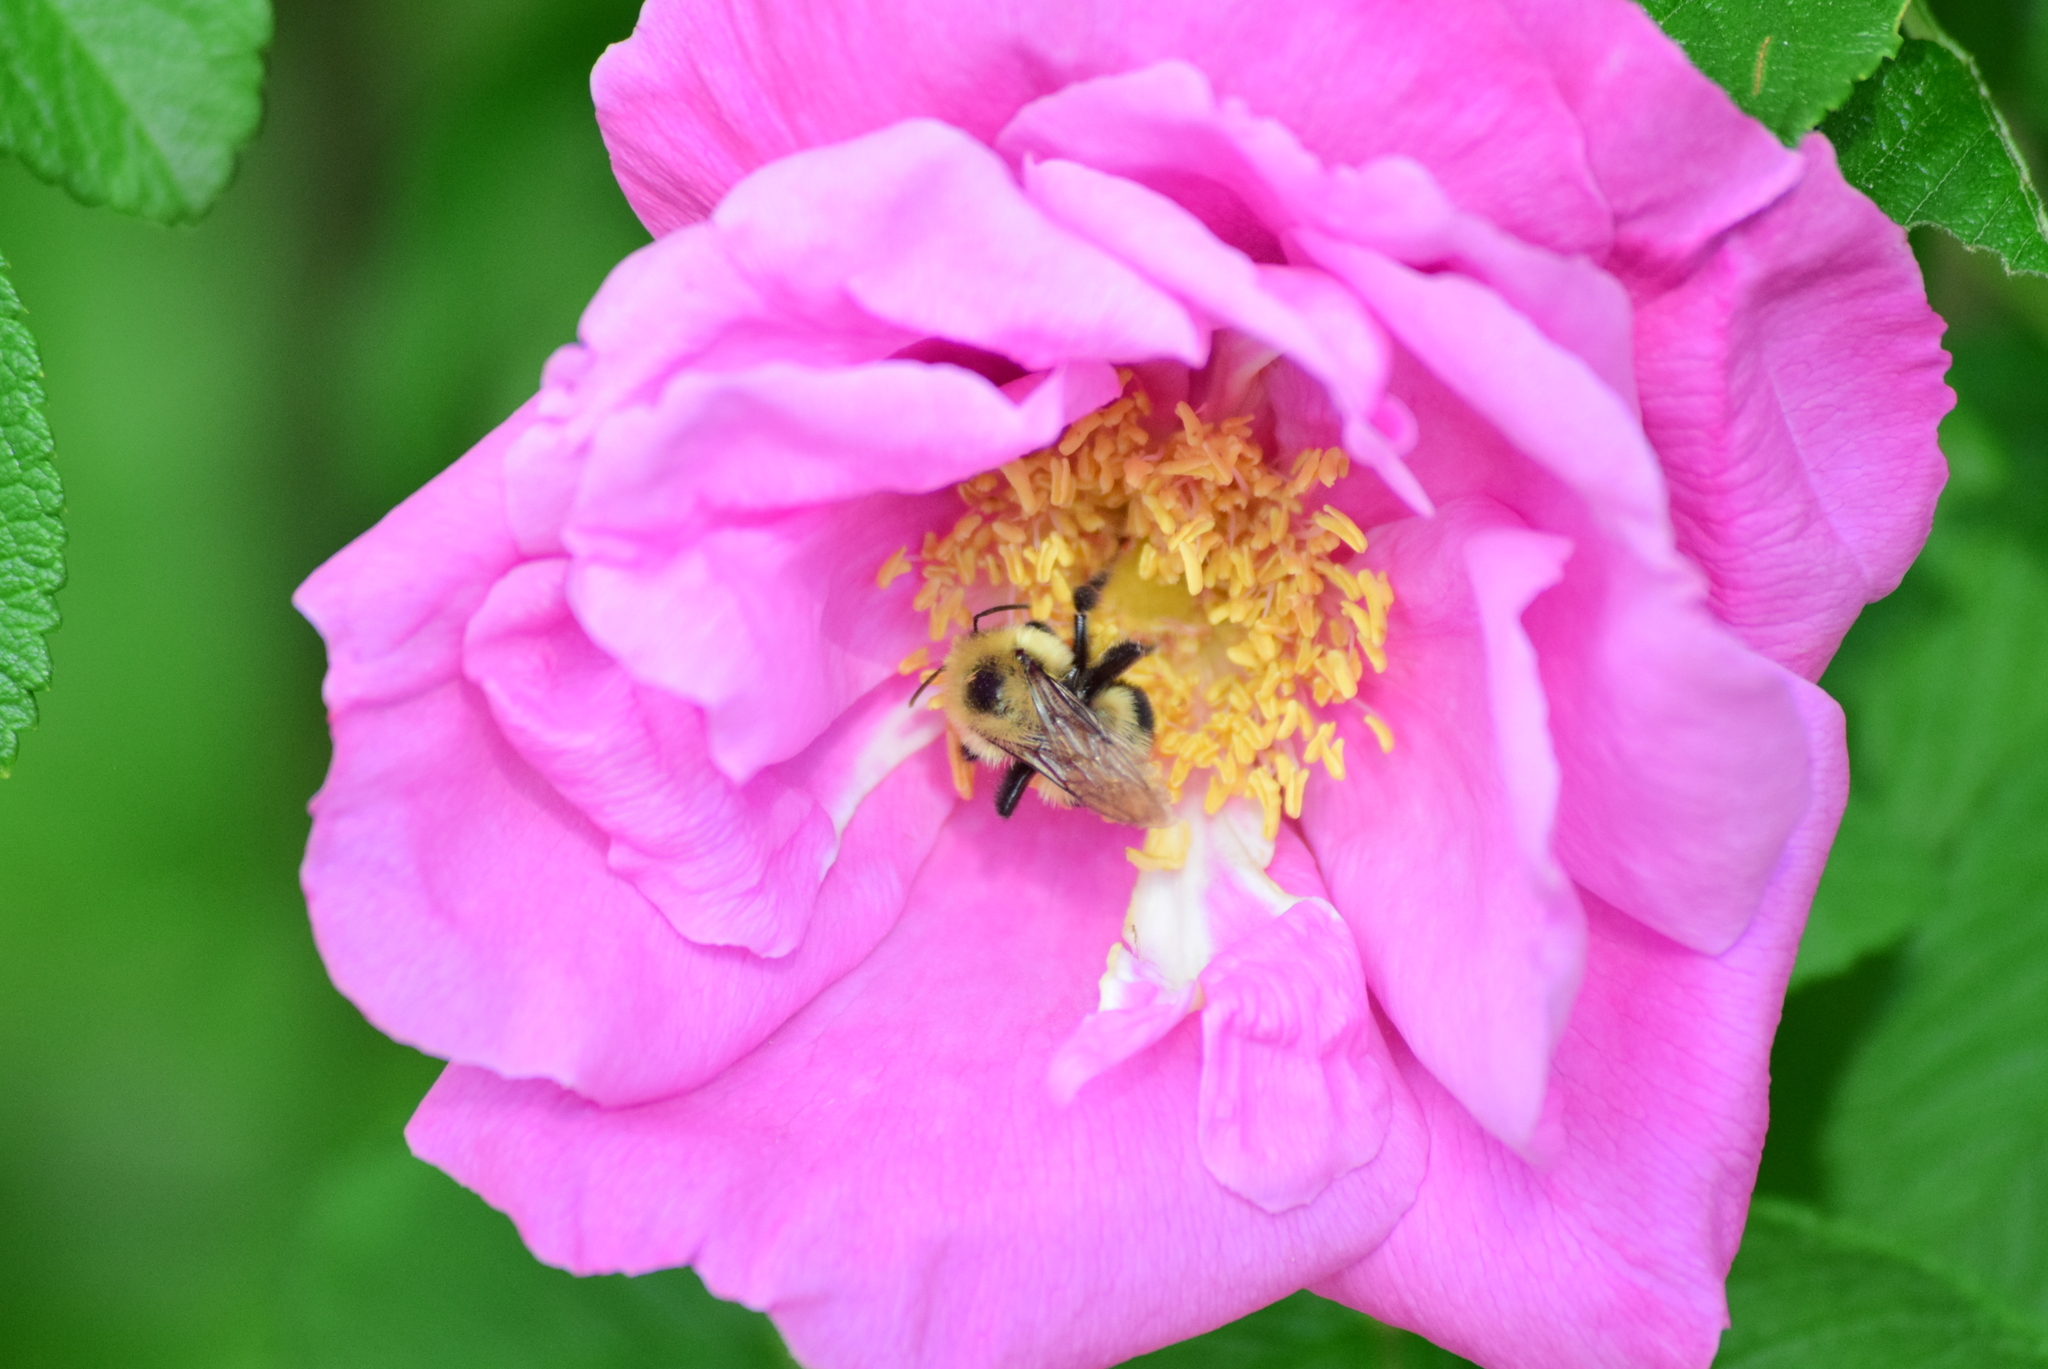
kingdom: Animalia
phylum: Arthropoda
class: Insecta
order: Hymenoptera
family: Apidae
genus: Bombus
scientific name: Bombus bimaculatus
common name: Two-spotted bumble bee
